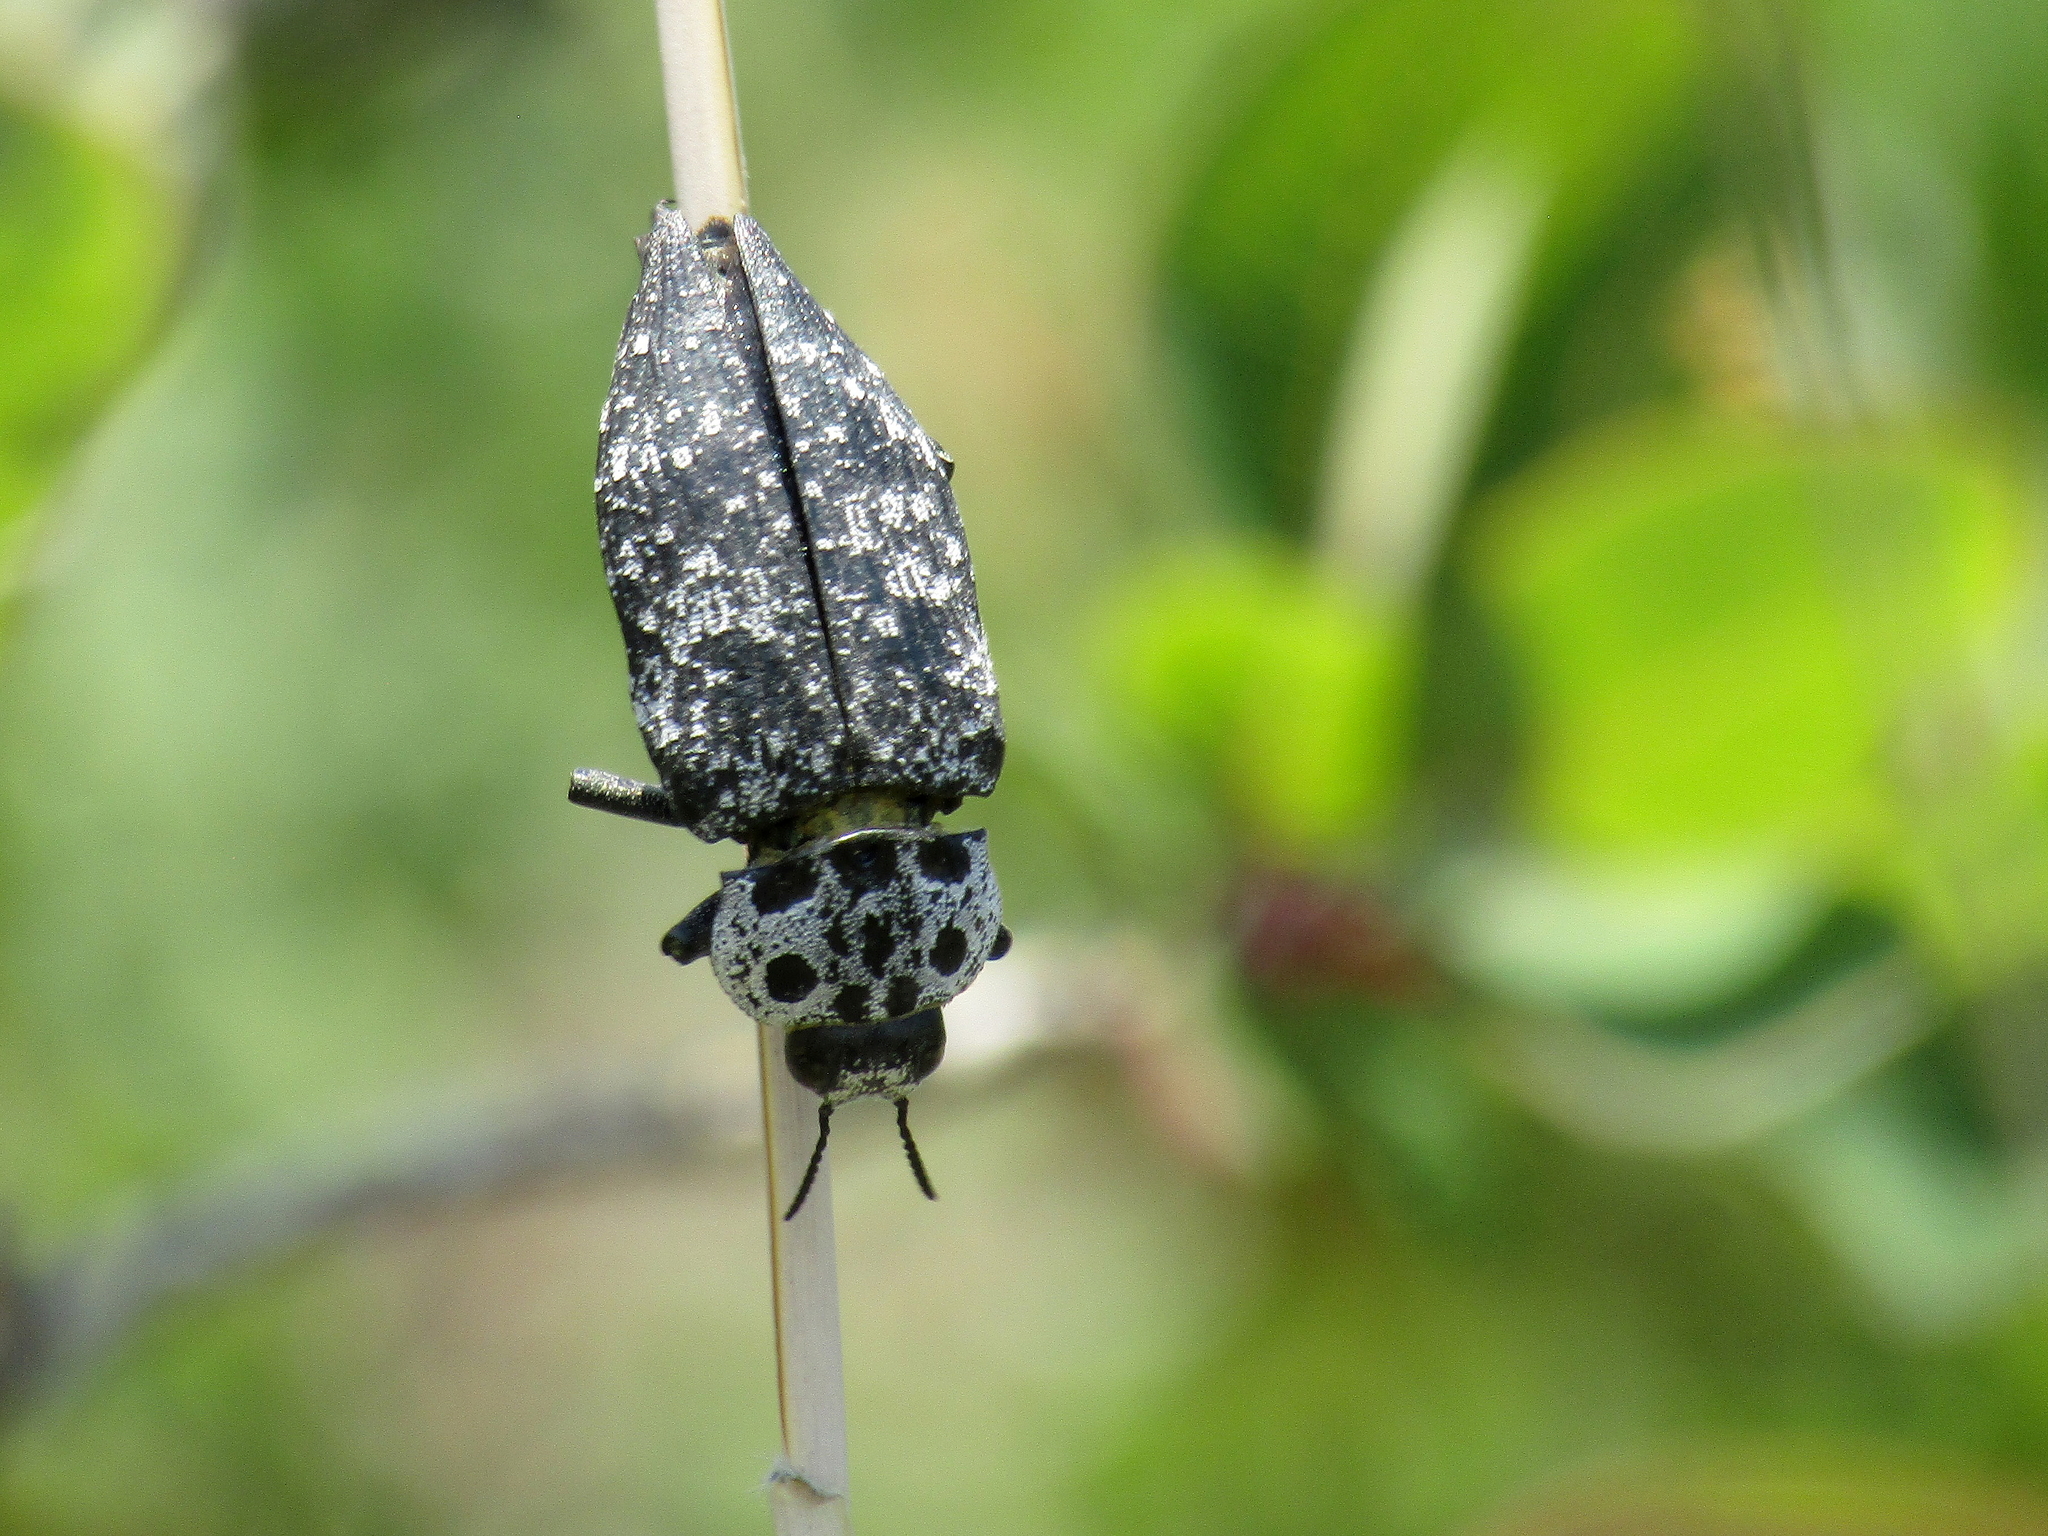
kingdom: Animalia
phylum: Arthropoda
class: Insecta
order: Coleoptera
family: Buprestidae
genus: Capnodis
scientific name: Capnodis cariosa
